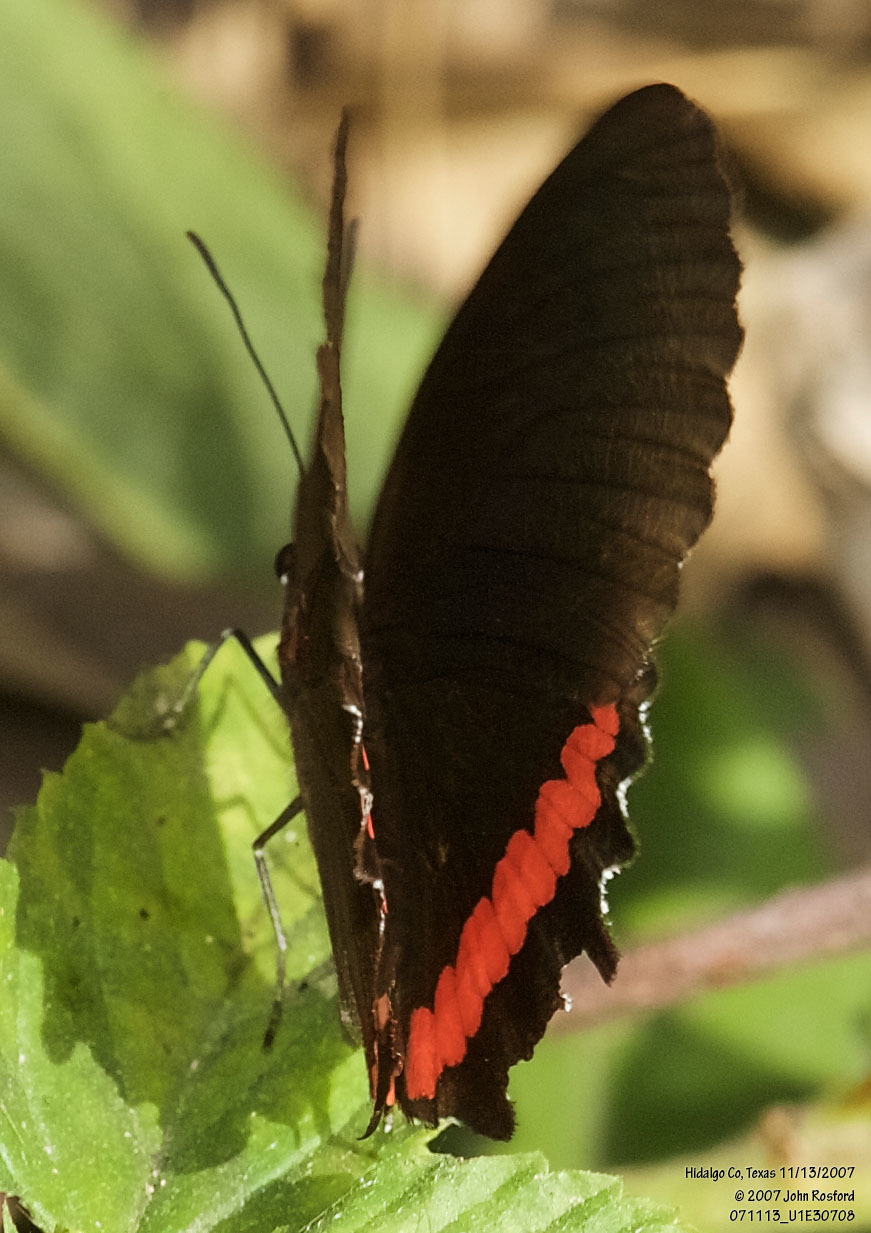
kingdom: Animalia
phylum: Arthropoda
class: Insecta
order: Lepidoptera
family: Nymphalidae
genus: Biblis
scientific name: Biblis aganisa
